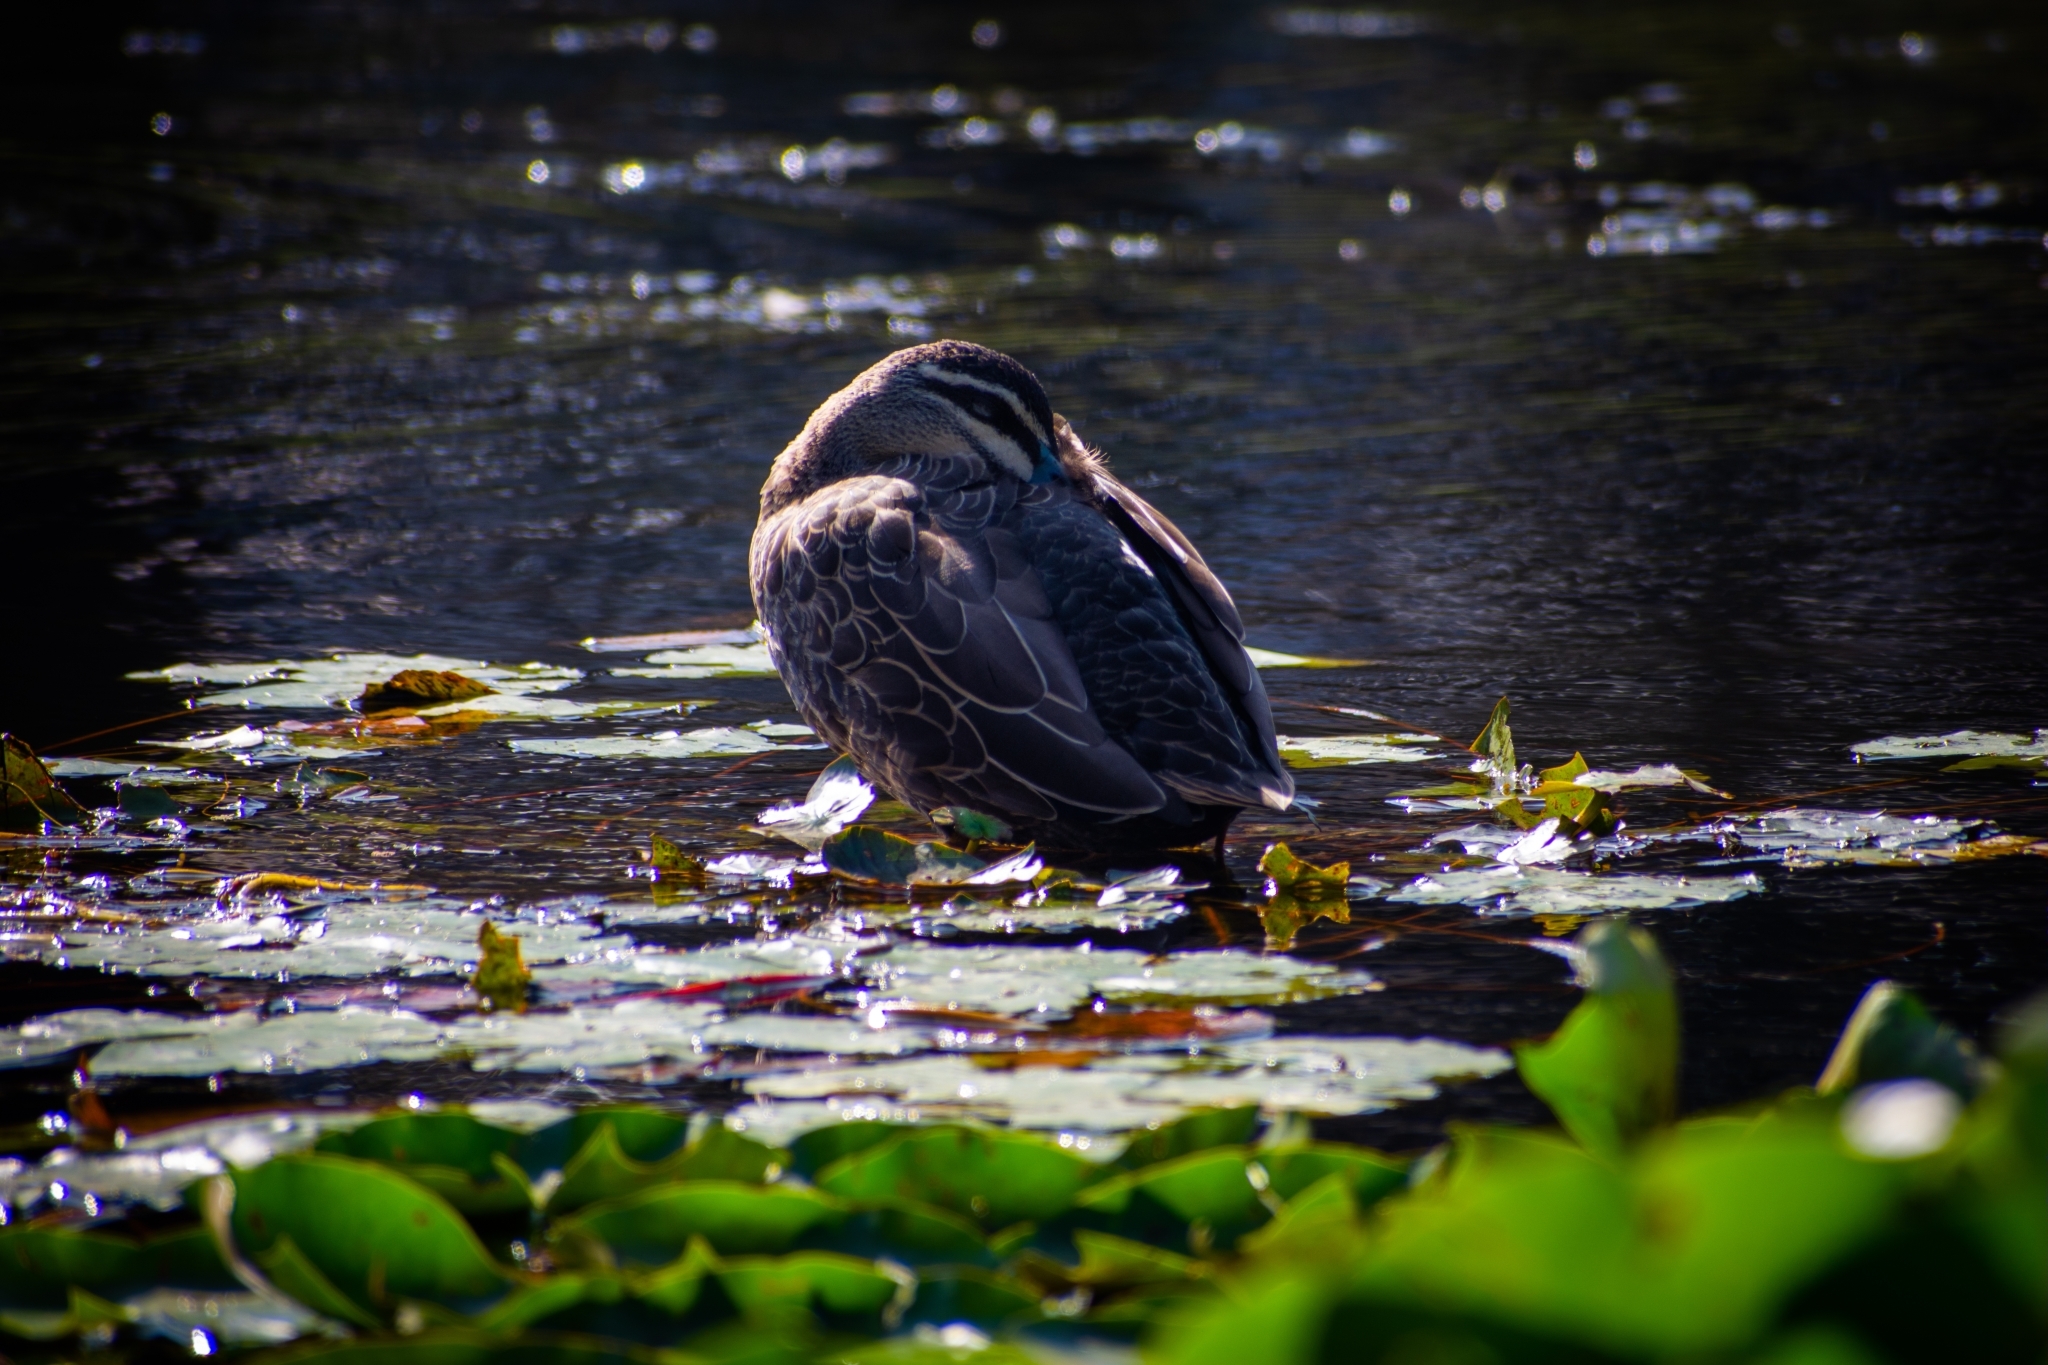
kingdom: Animalia
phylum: Chordata
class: Aves
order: Anseriformes
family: Anatidae
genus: Anas
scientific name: Anas superciliosa
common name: Pacific black duck
